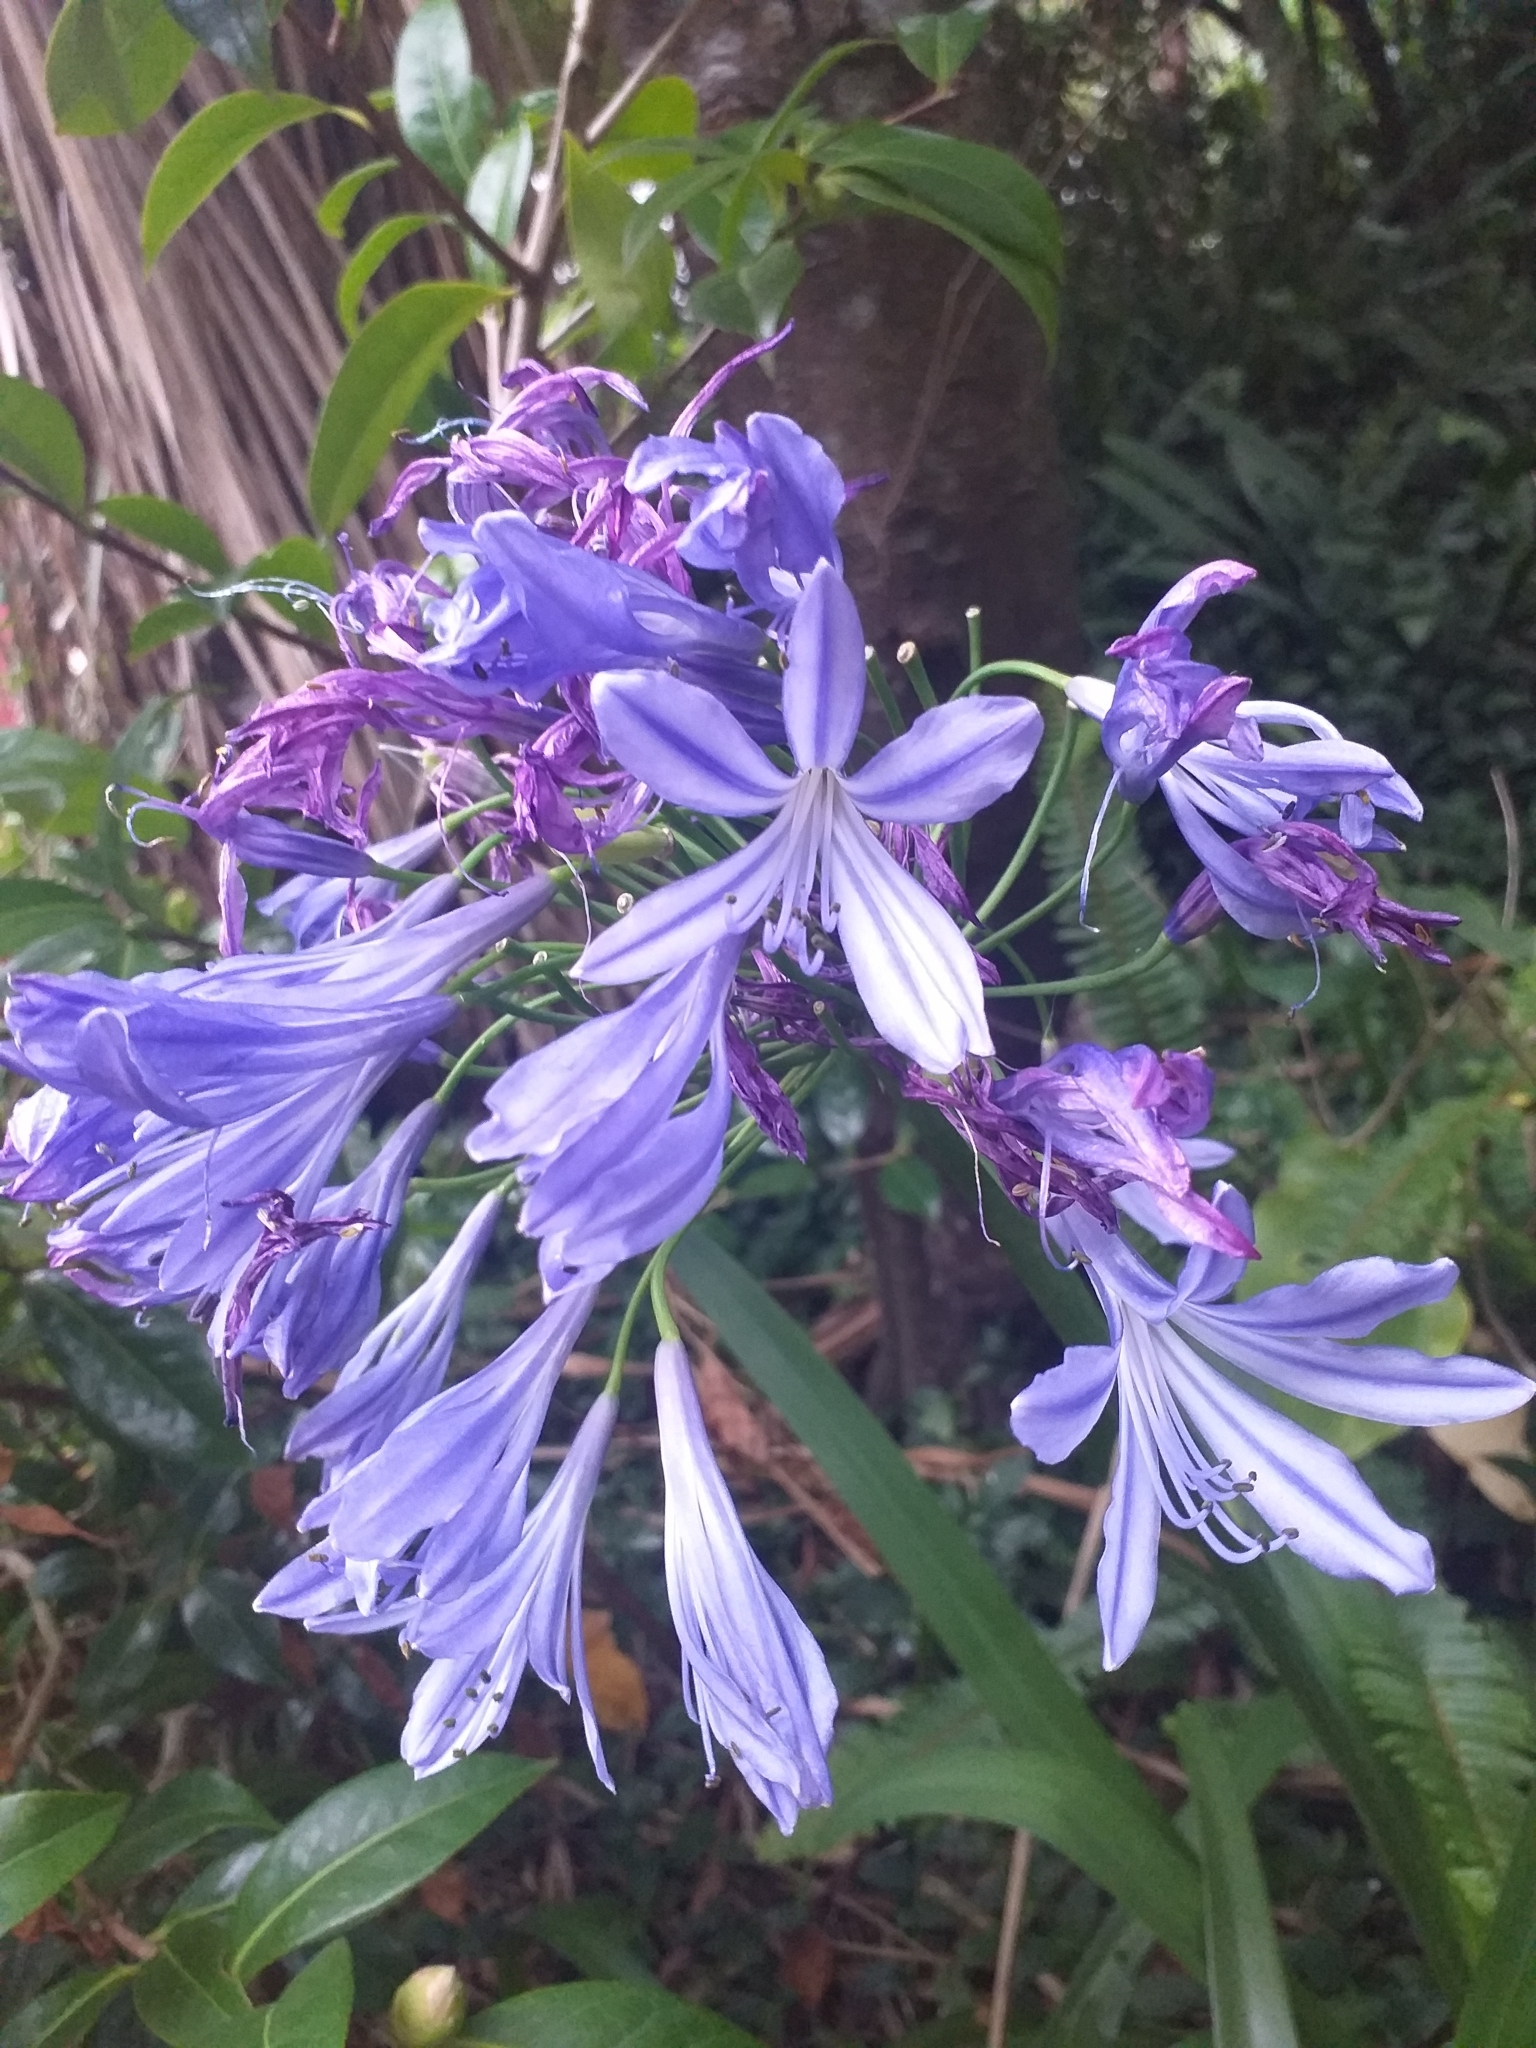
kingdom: Plantae
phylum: Tracheophyta
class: Liliopsida
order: Asparagales
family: Amaryllidaceae
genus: Agapanthus
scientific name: Agapanthus praecox
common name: African-lily
